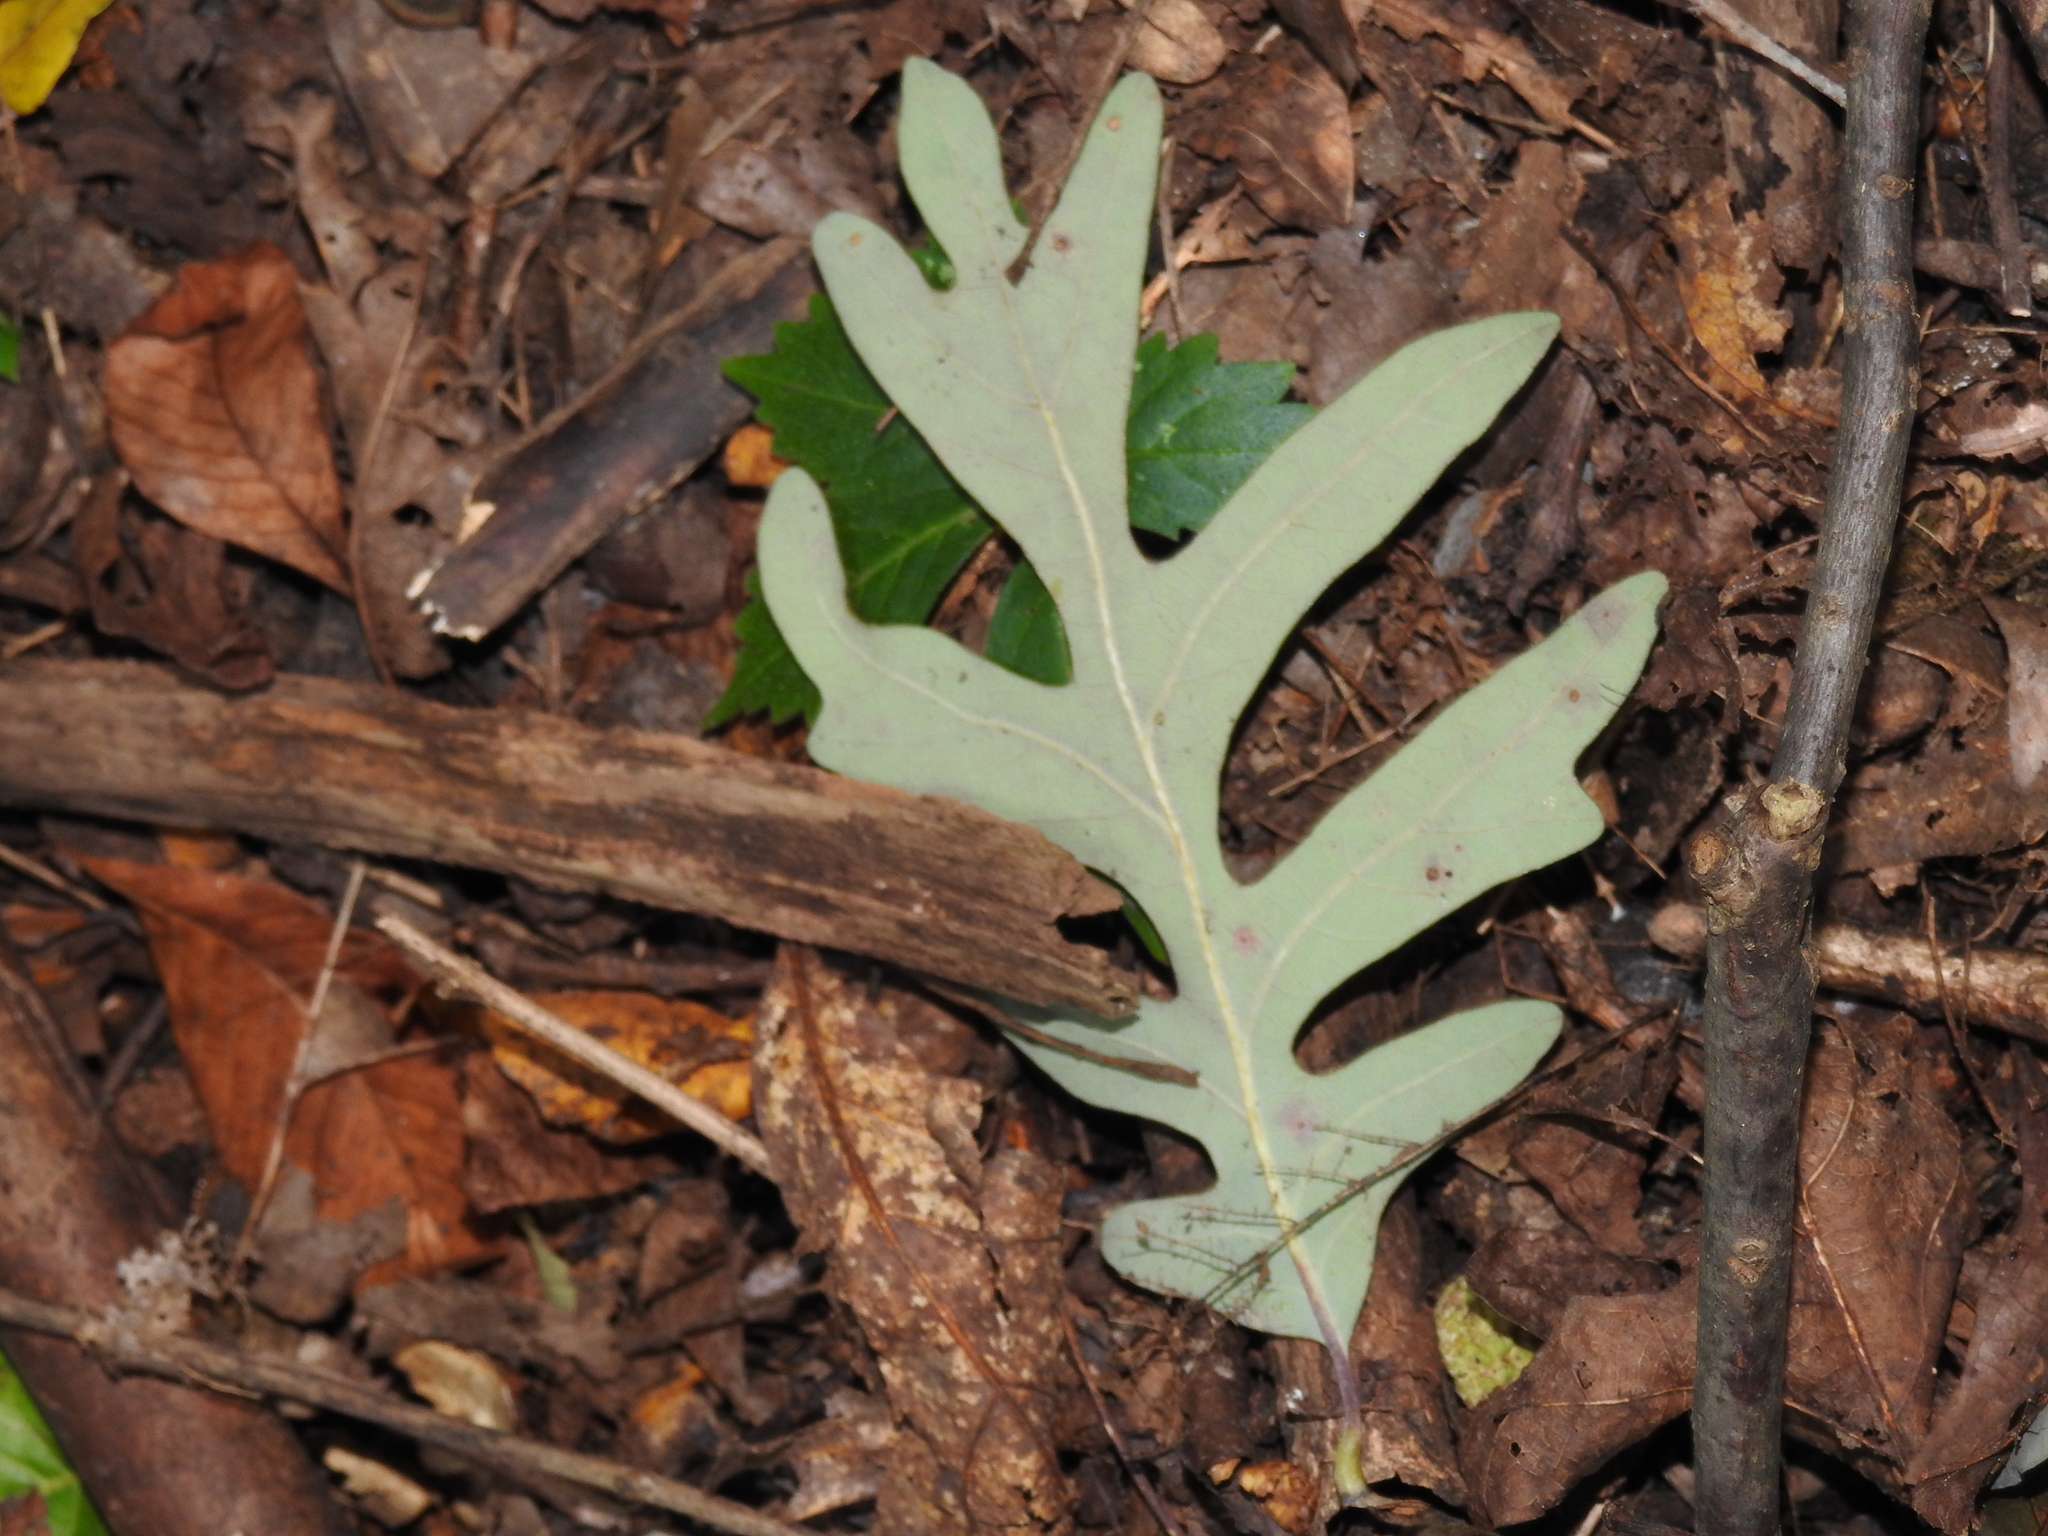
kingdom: Plantae
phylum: Tracheophyta
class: Magnoliopsida
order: Fagales
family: Fagaceae
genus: Quercus
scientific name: Quercus alba
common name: White oak
